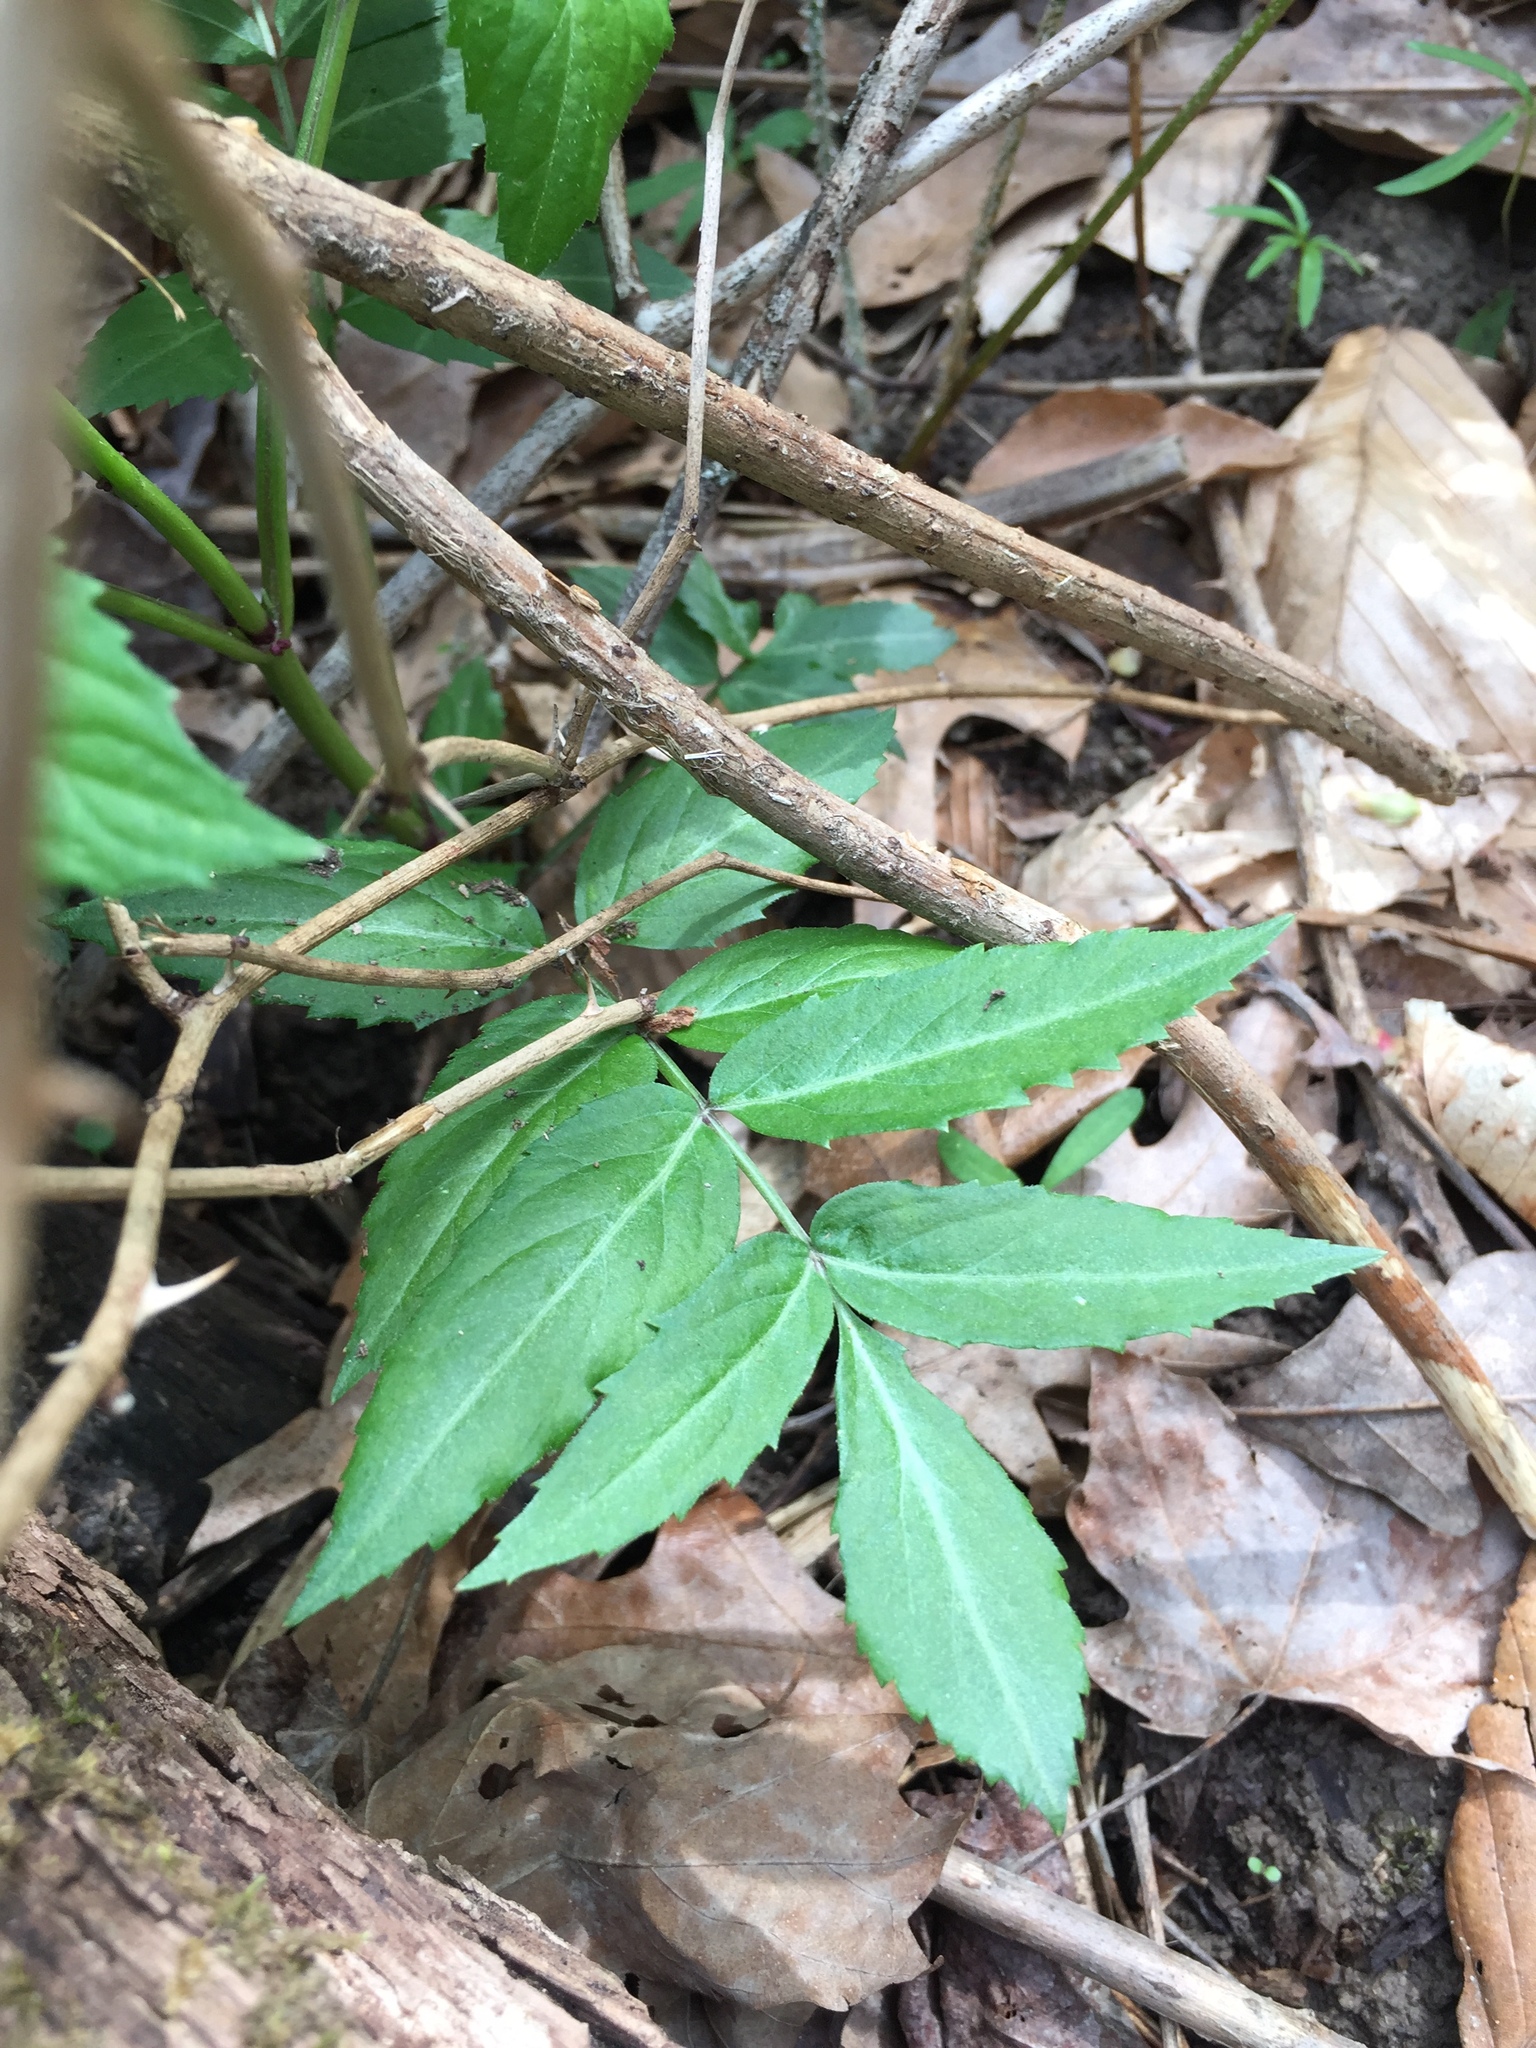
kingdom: Plantae
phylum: Tracheophyta
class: Magnoliopsida
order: Dipsacales
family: Viburnaceae
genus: Sambucus
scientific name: Sambucus canadensis
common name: American elder
